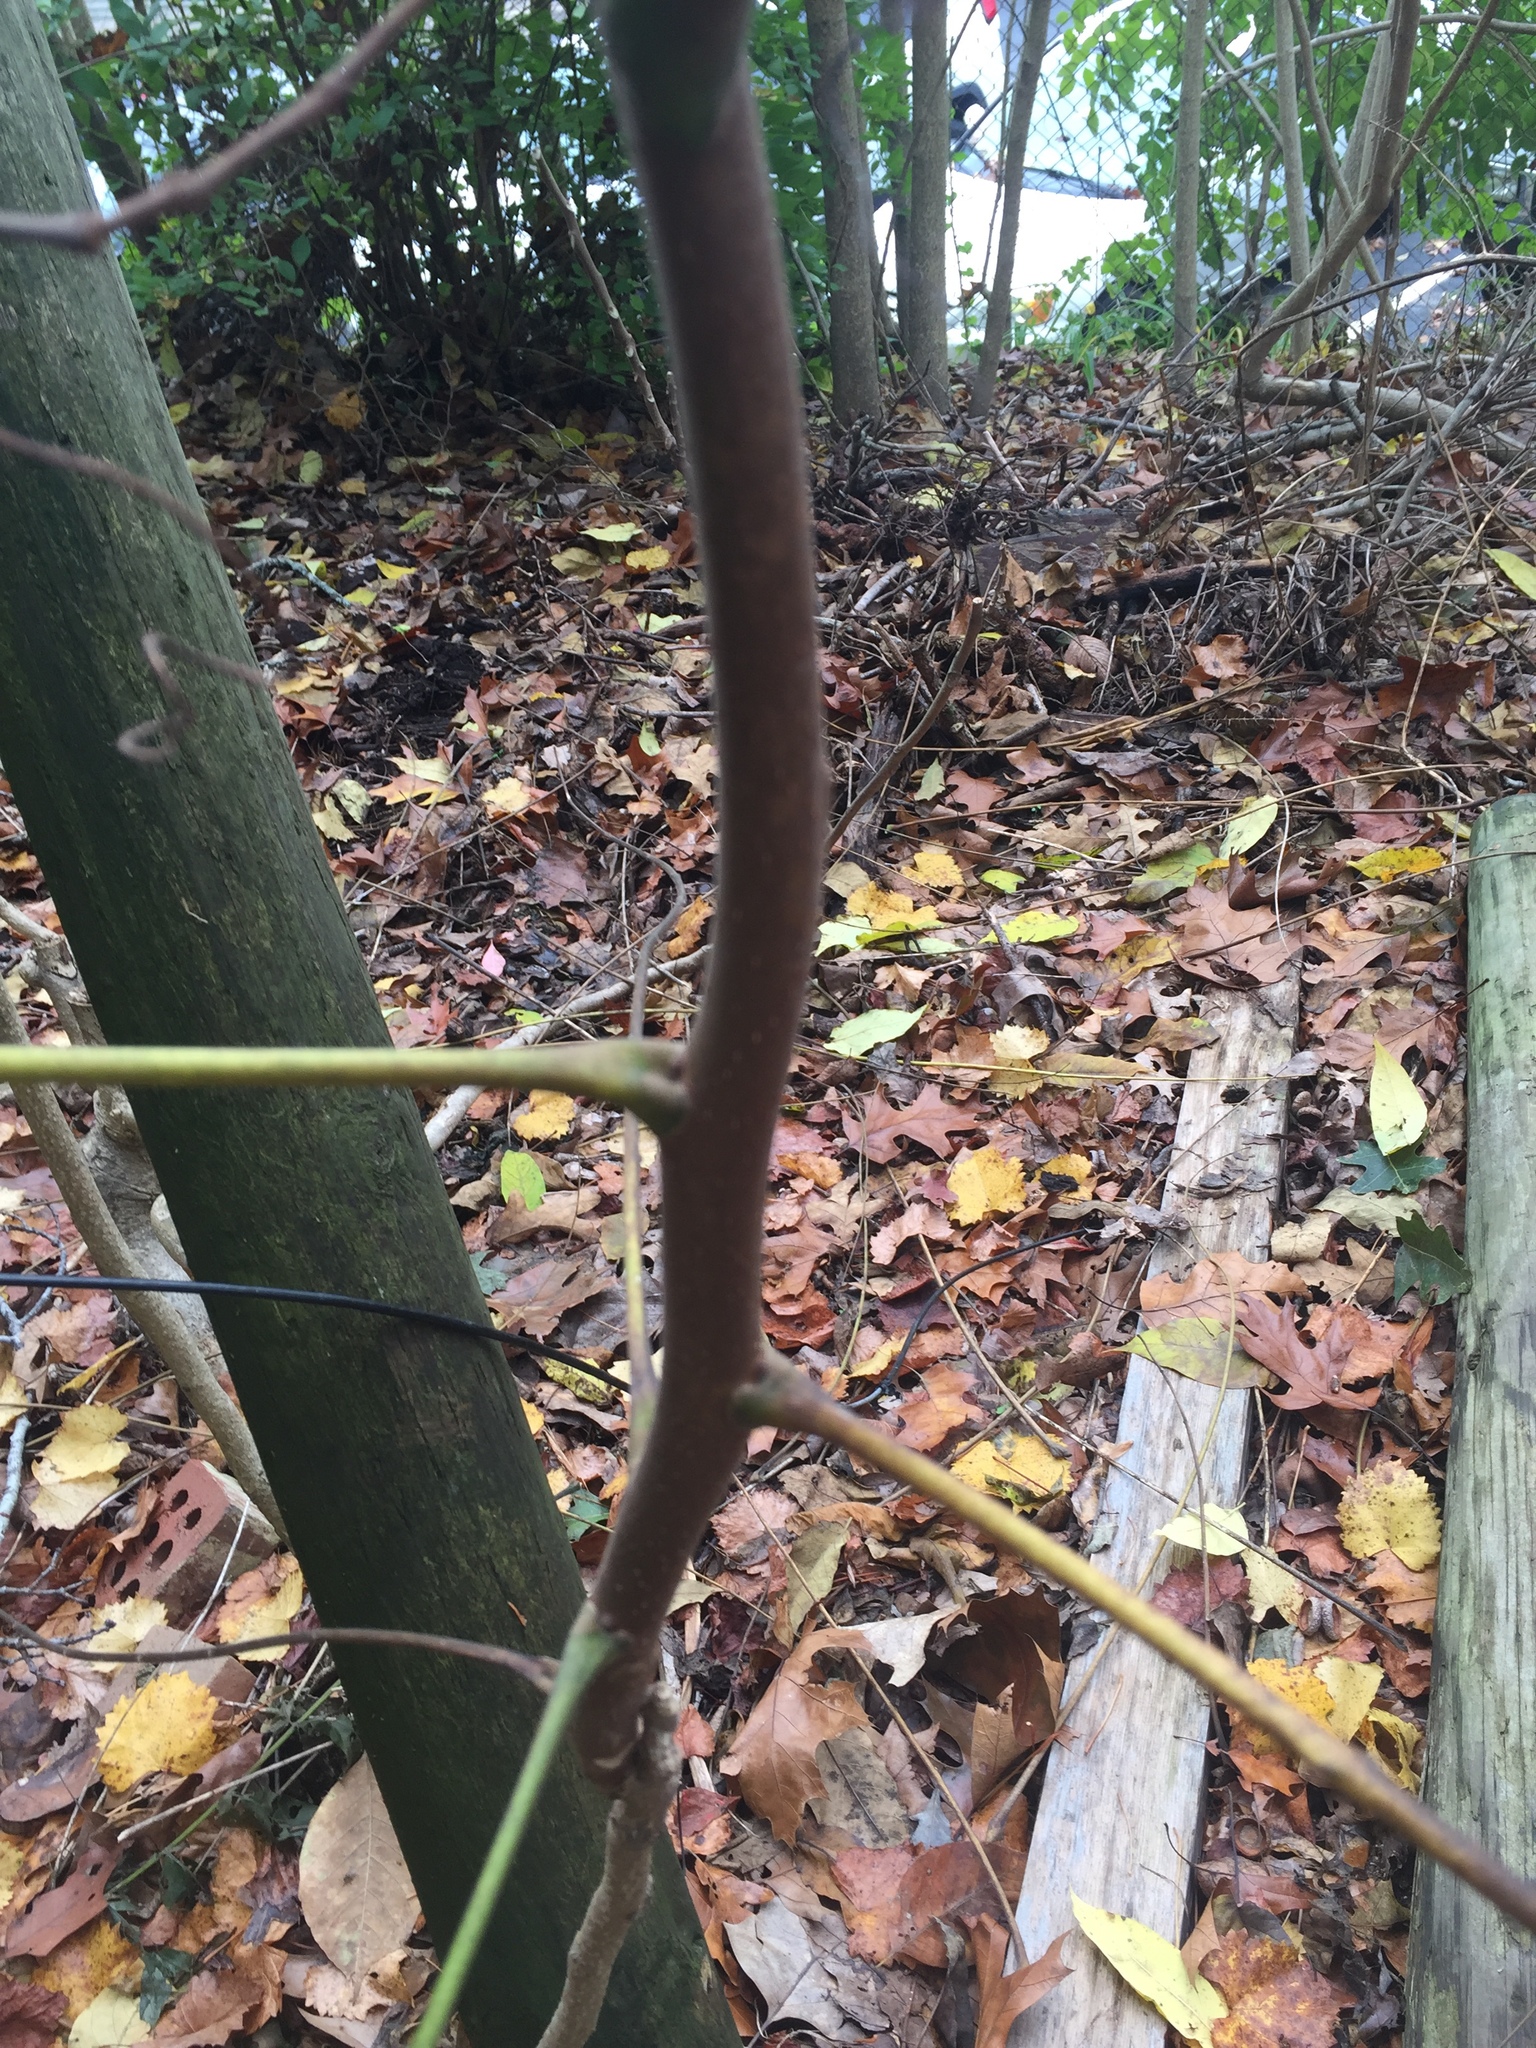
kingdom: Plantae
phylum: Tracheophyta
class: Magnoliopsida
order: Sapindales
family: Simaroubaceae
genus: Ailanthus
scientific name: Ailanthus altissima
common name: Tree-of-heaven
